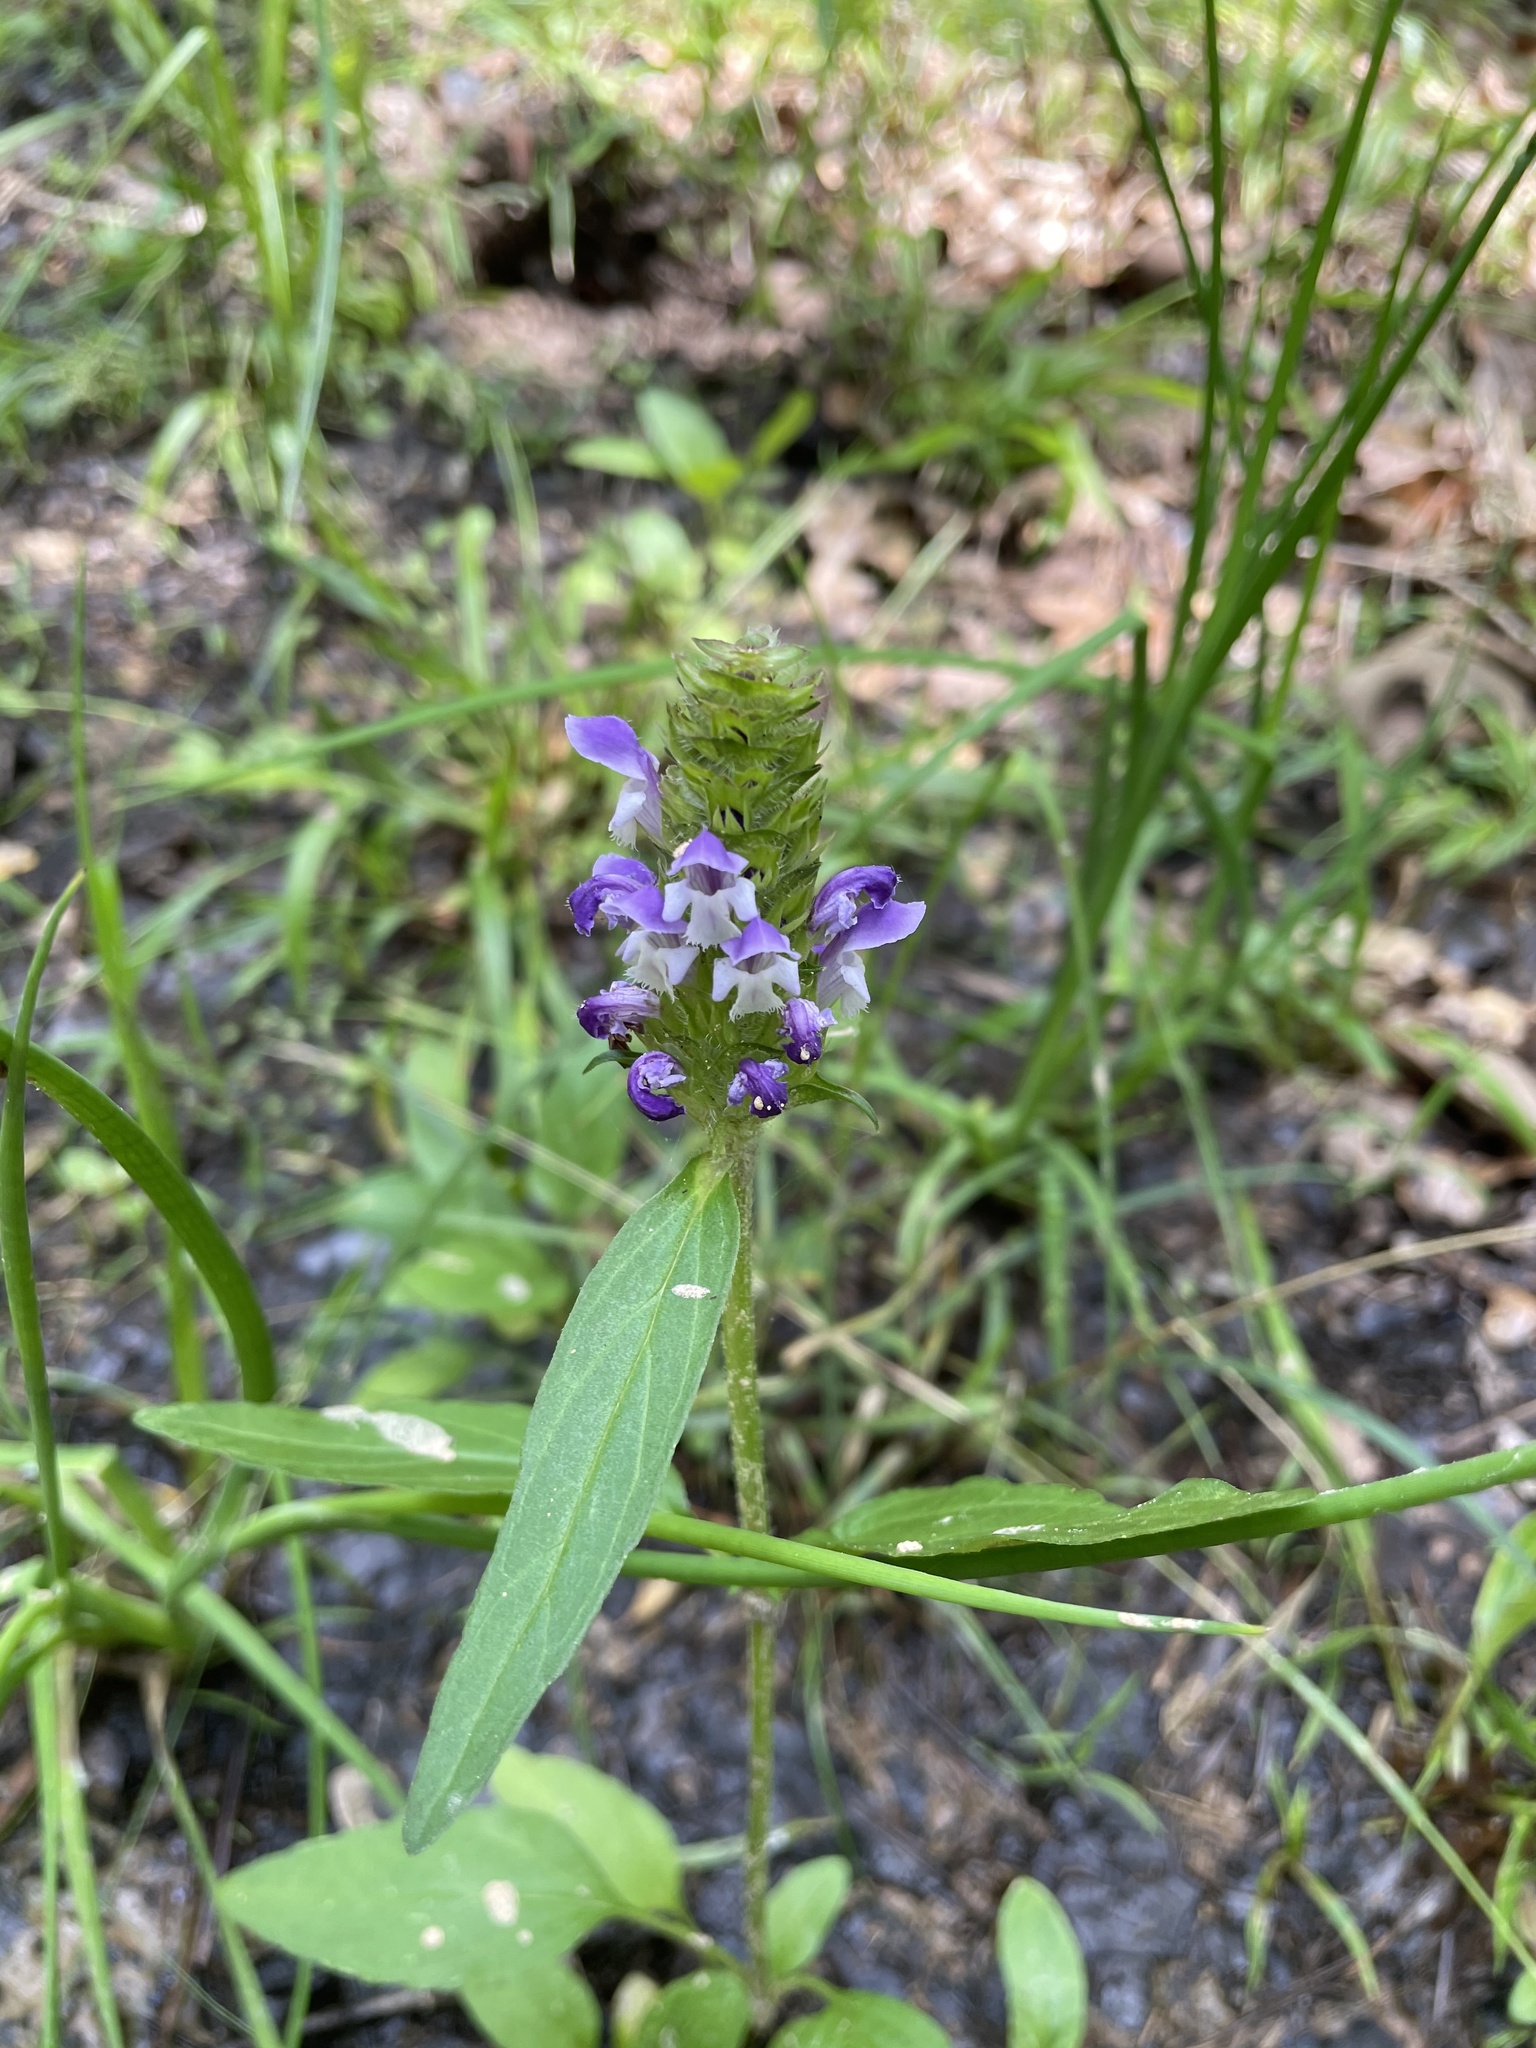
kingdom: Plantae
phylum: Tracheophyta
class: Magnoliopsida
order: Lamiales
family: Lamiaceae
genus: Prunella
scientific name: Prunella vulgaris
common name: Heal-all
